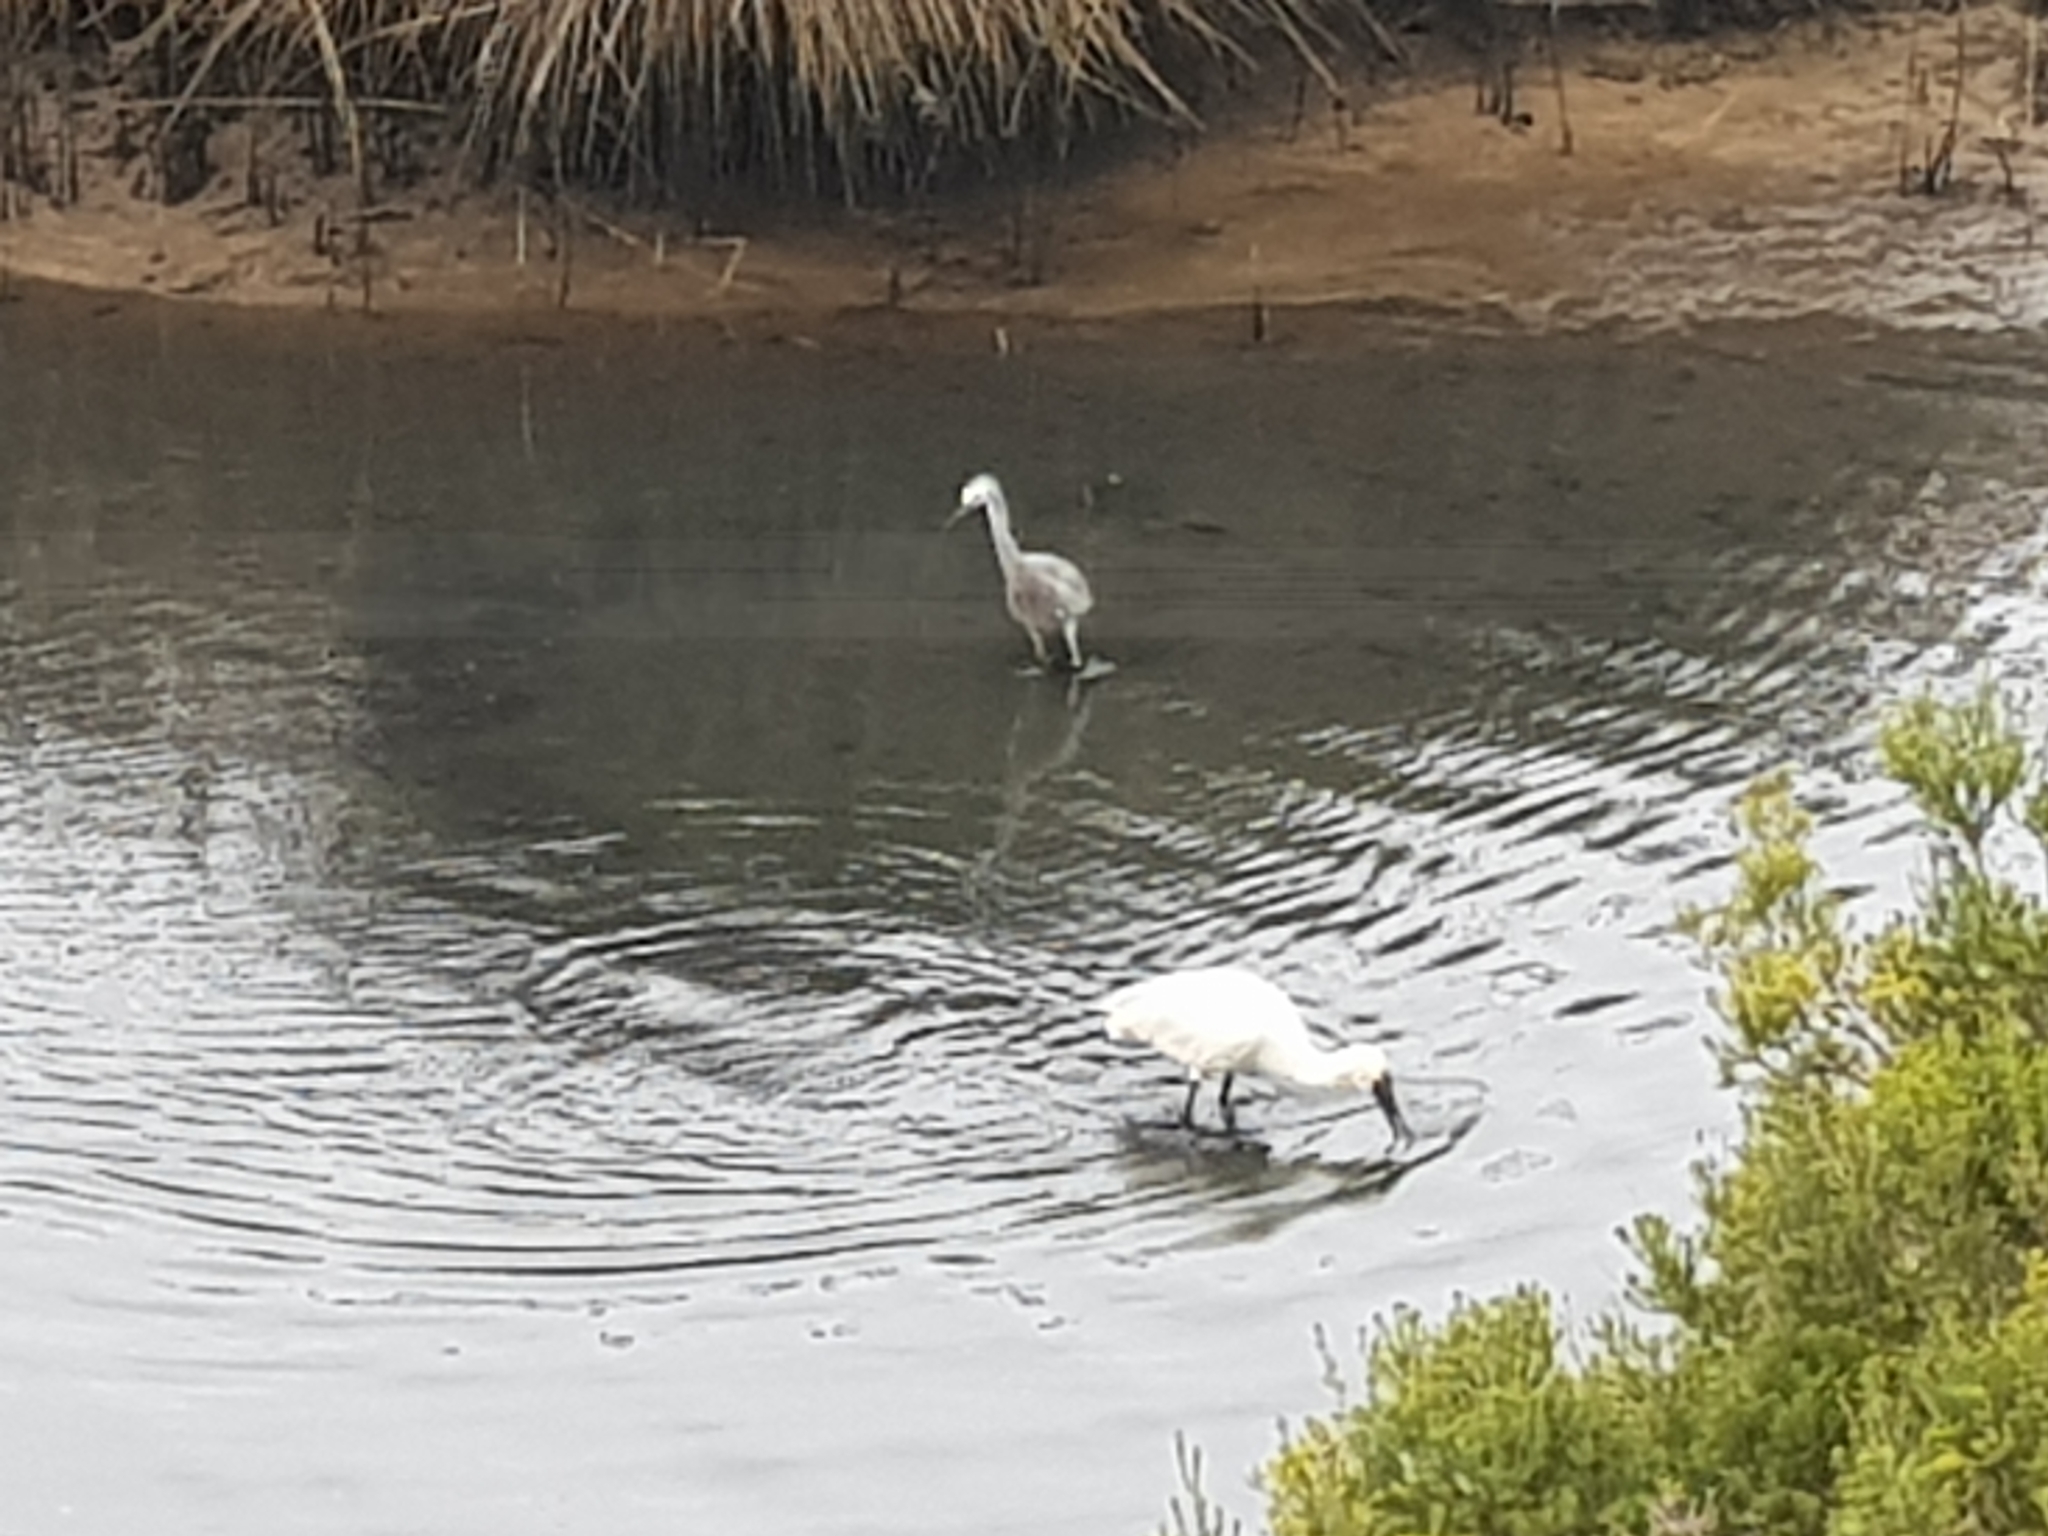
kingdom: Animalia
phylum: Chordata
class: Aves
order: Pelecaniformes
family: Ardeidae
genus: Egretta
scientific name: Egretta novaehollandiae
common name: White-faced heron
